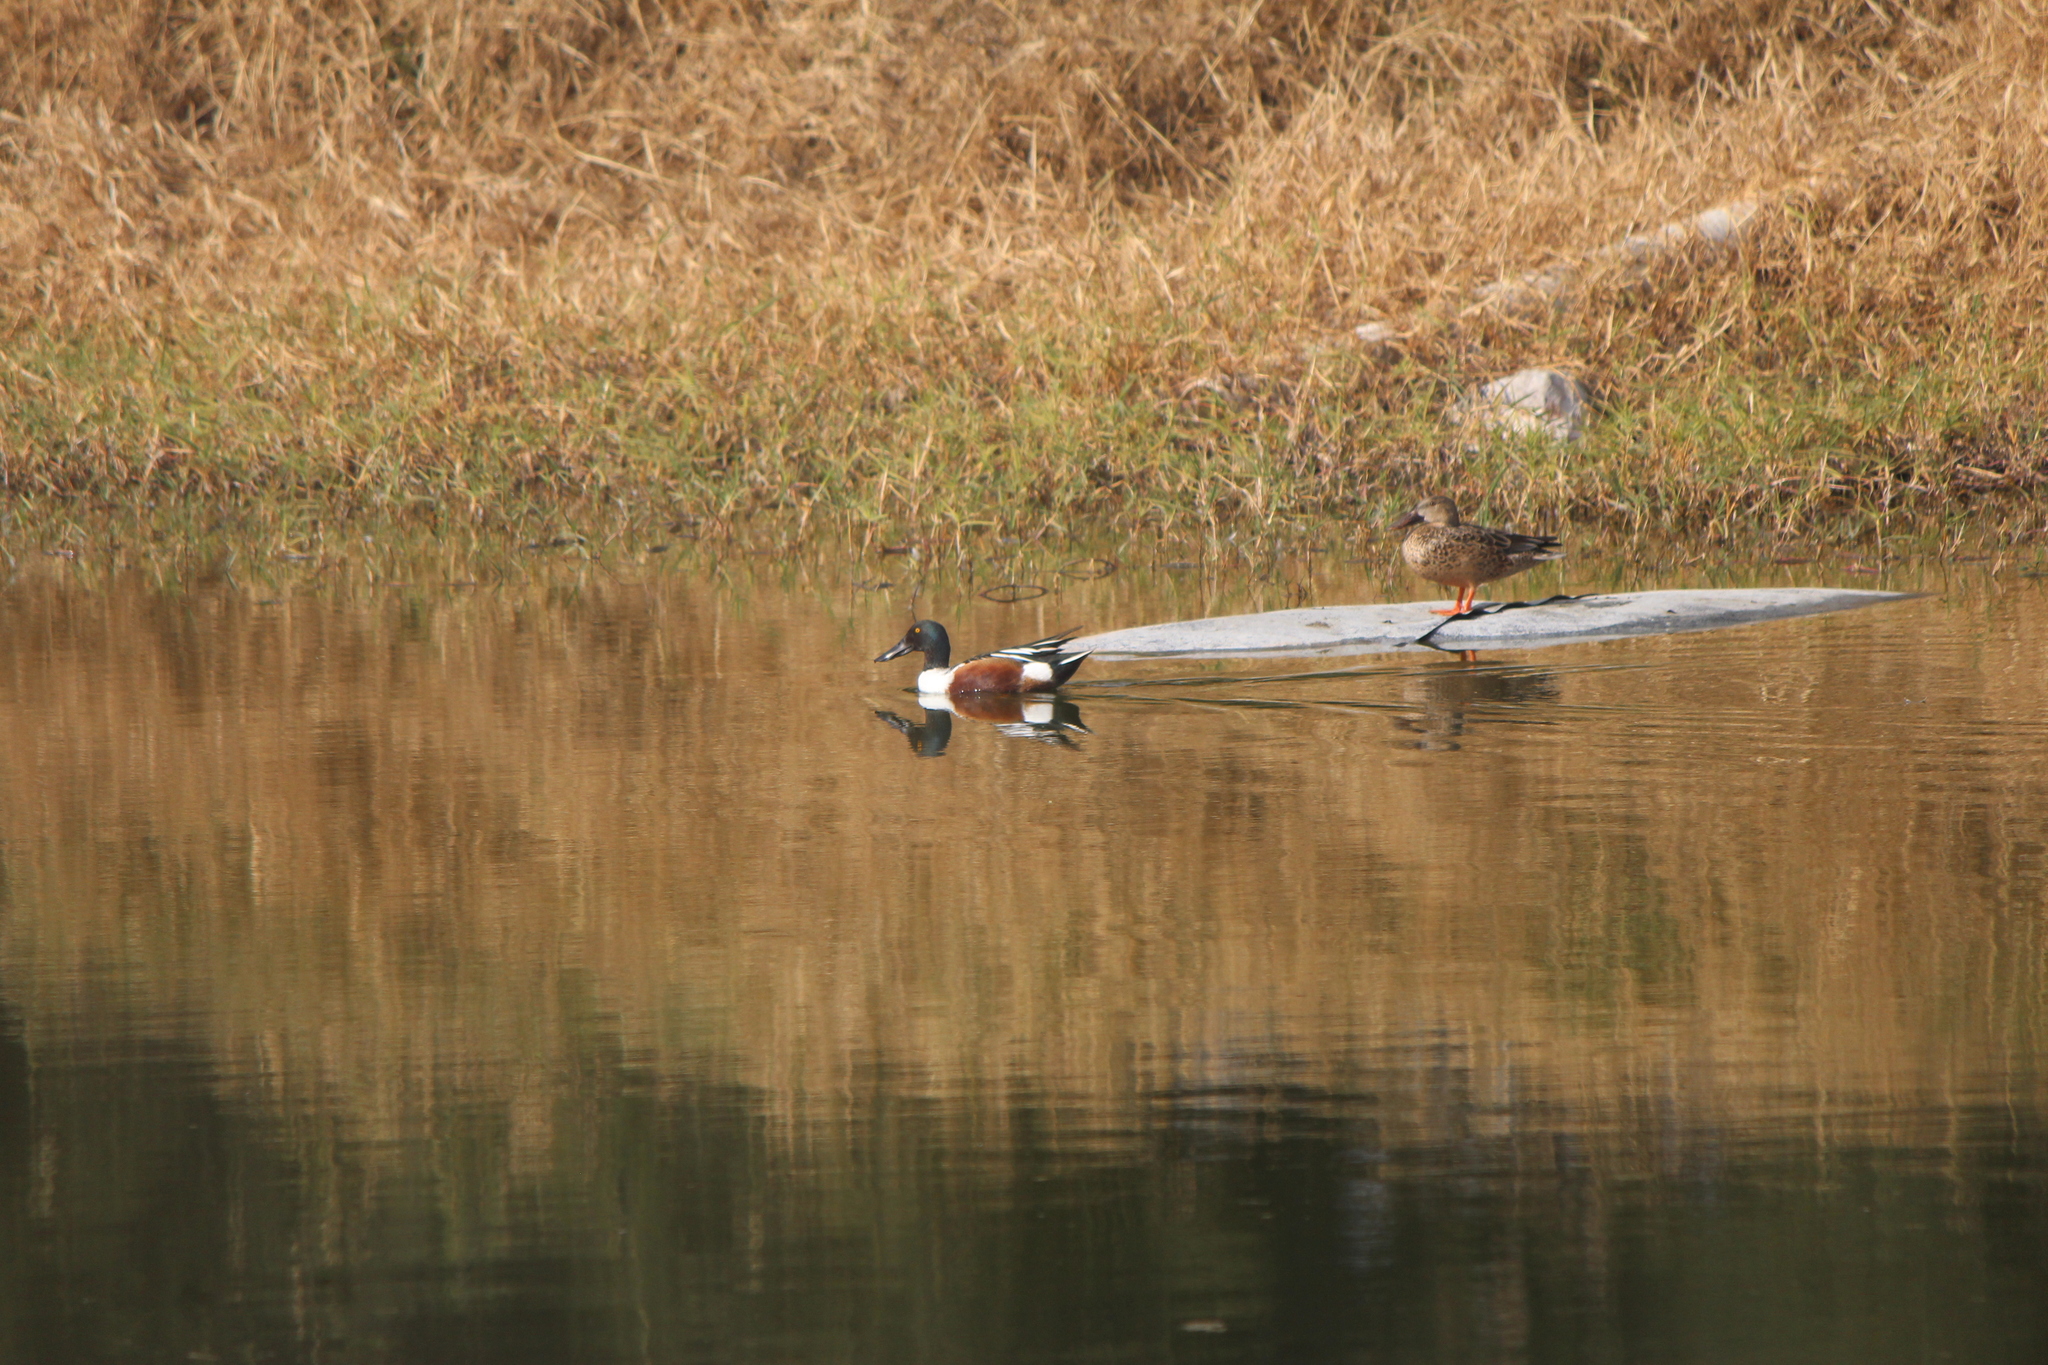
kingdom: Animalia
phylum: Chordata
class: Aves
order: Anseriformes
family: Anatidae
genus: Spatula
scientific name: Spatula clypeata
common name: Northern shoveler
